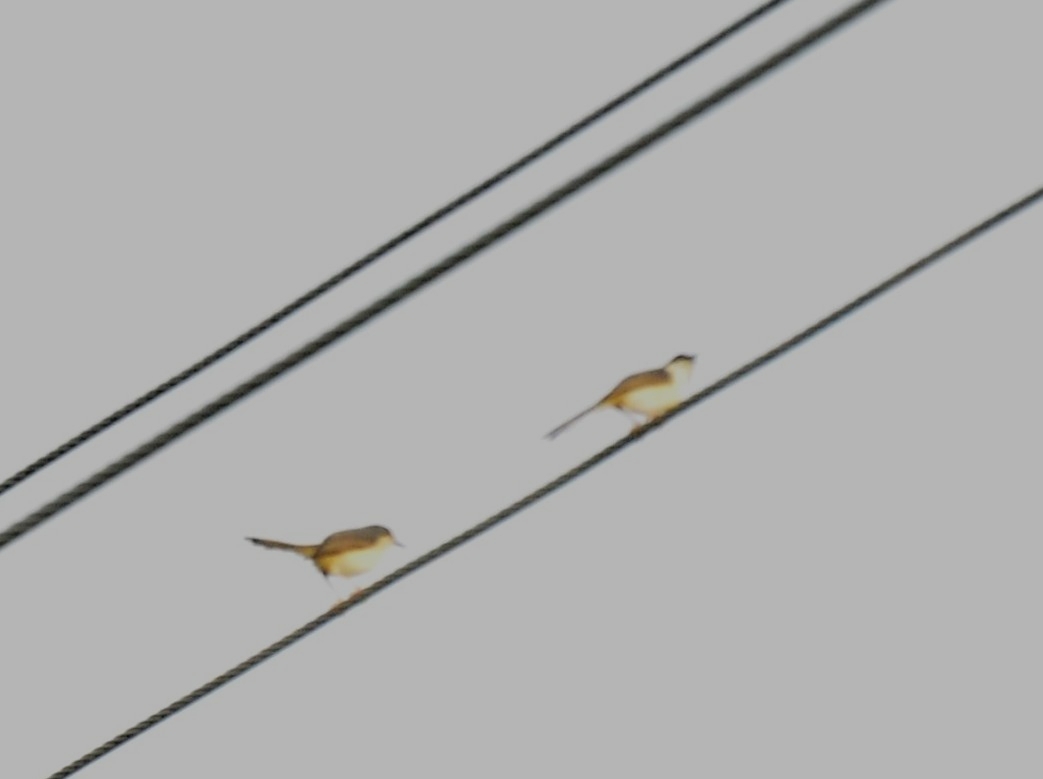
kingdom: Animalia
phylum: Chordata
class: Aves
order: Passeriformes
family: Cisticolidae
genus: Prinia
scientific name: Prinia socialis
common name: Ashy prinia
